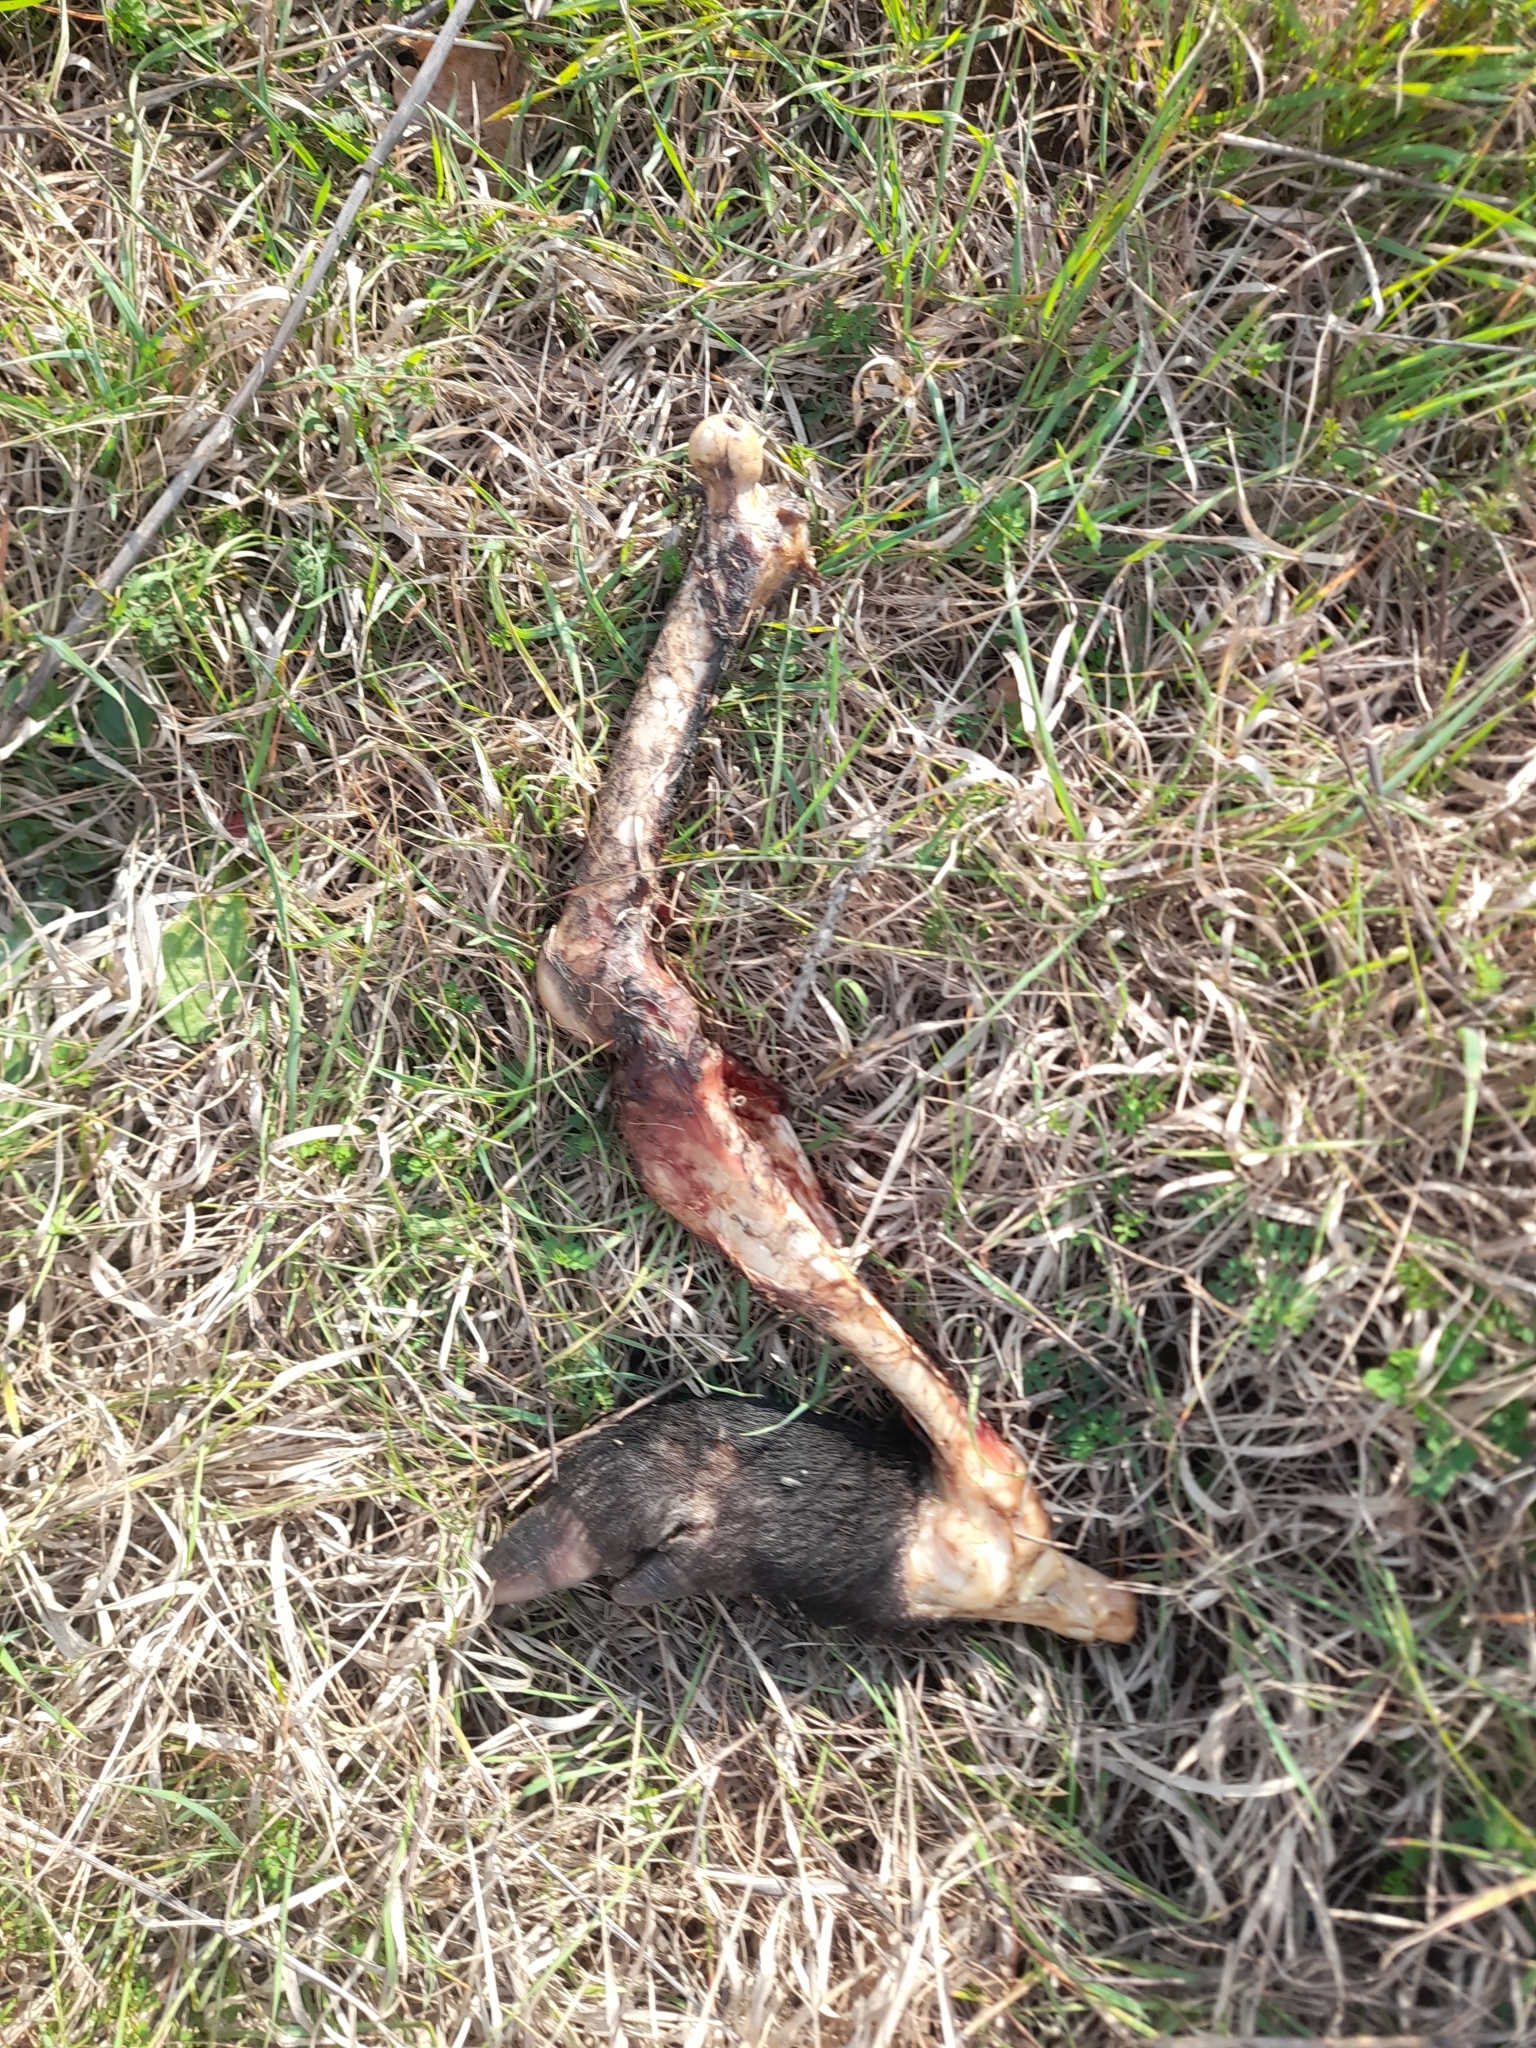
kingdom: Animalia
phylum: Chordata
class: Mammalia
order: Artiodactyla
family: Suidae
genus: Sus
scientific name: Sus scrofa
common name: Wild boar
